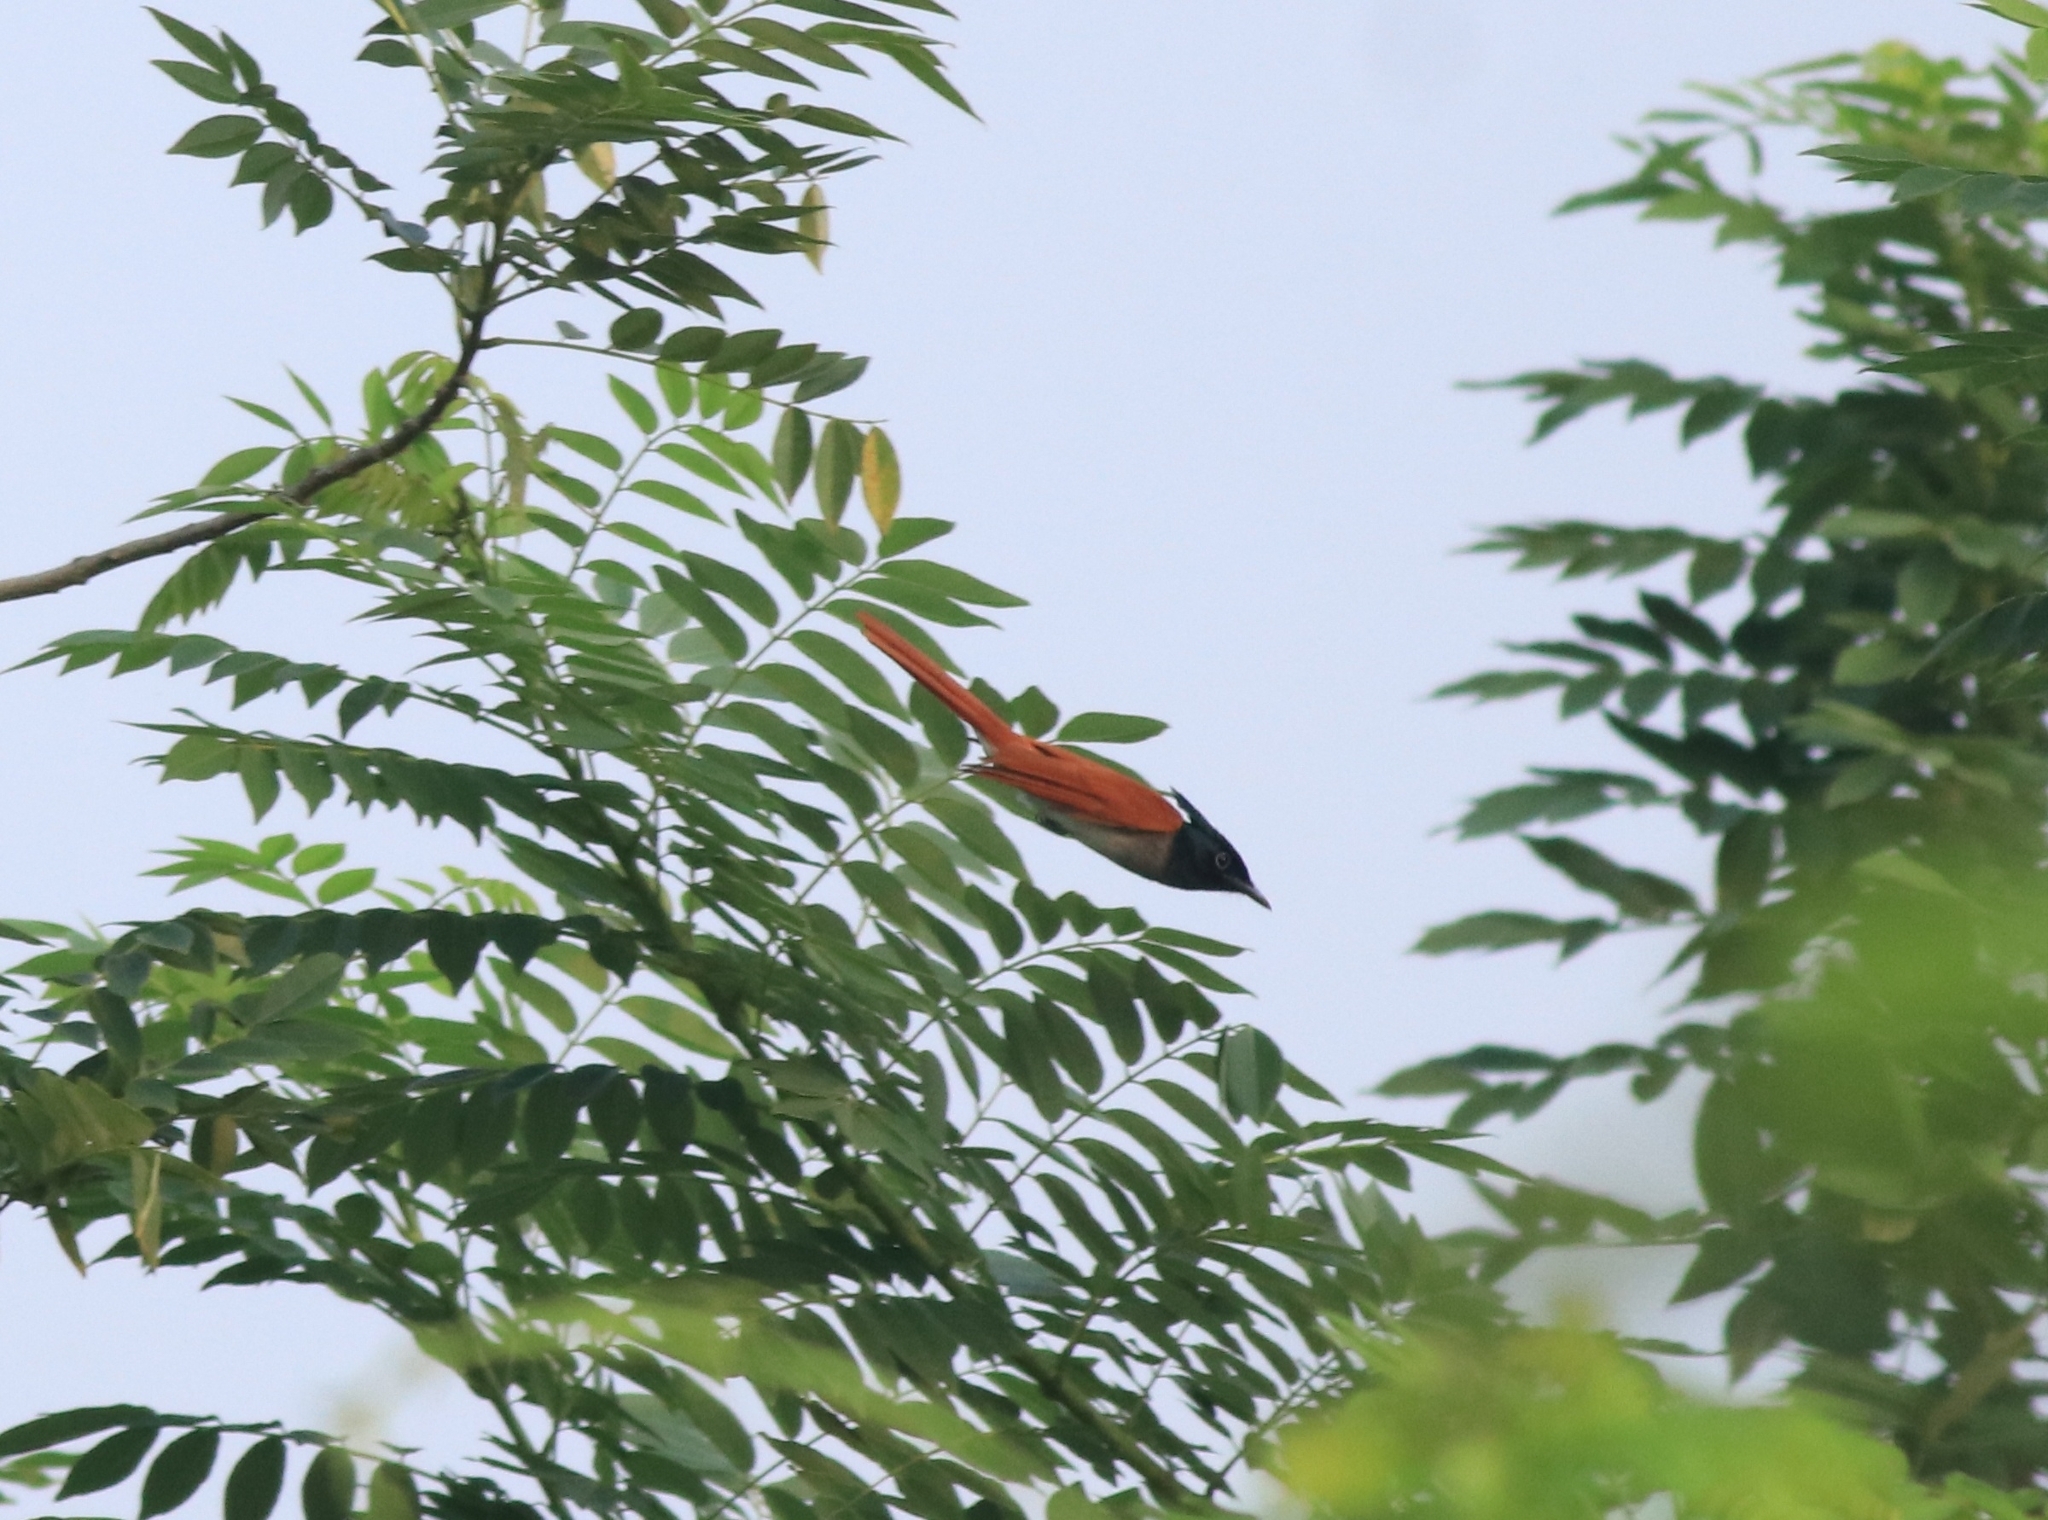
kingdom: Animalia
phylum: Chordata
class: Aves
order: Passeriformes
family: Monarchidae
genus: Terpsiphone
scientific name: Terpsiphone paradisi
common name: Indian paradise flycatcher
